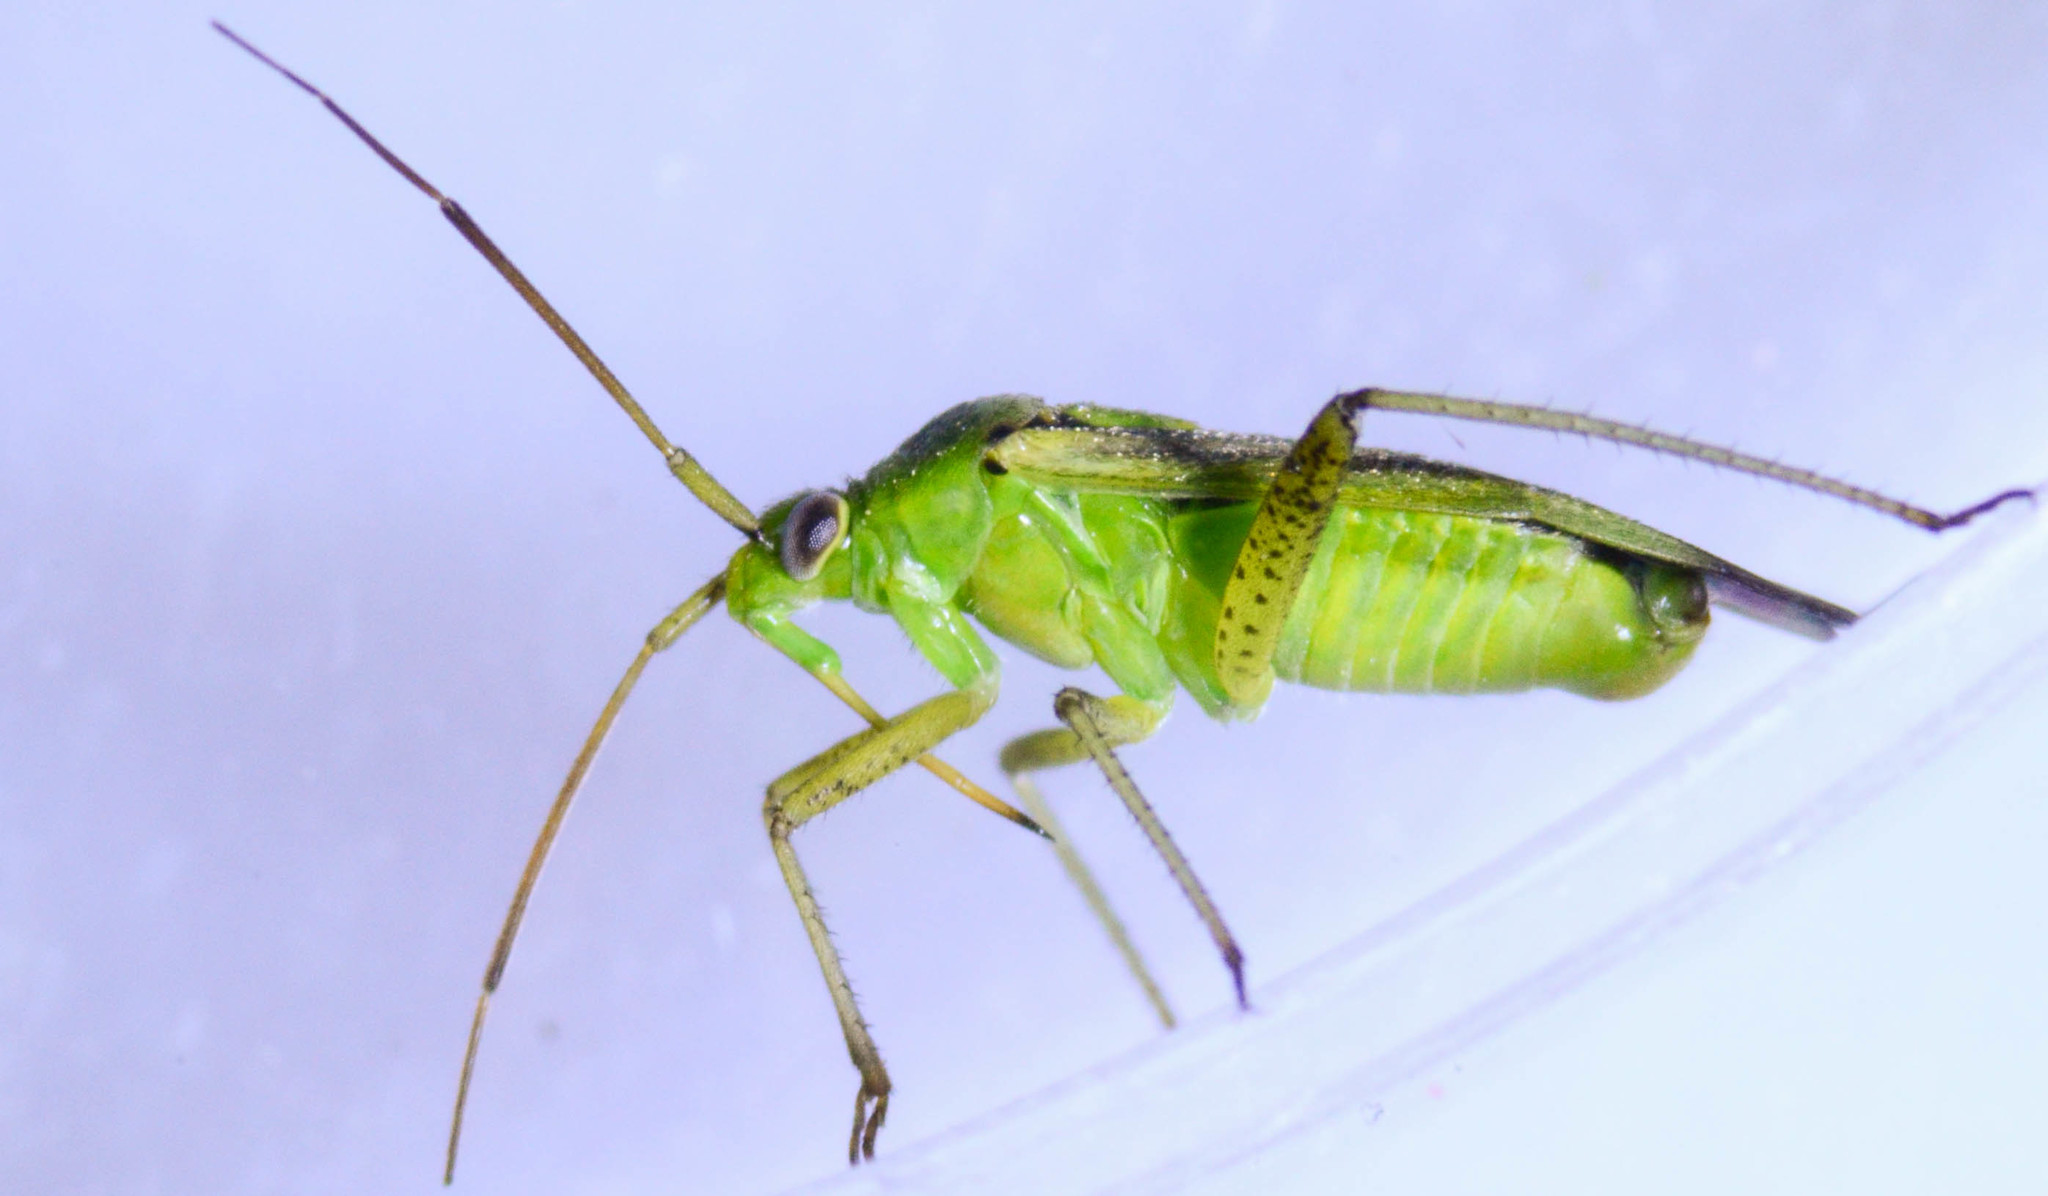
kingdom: Animalia
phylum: Arthropoda
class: Insecta
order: Hemiptera
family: Miridae
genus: Closterotomus
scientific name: Closterotomus norvegicus
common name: Plant bug
